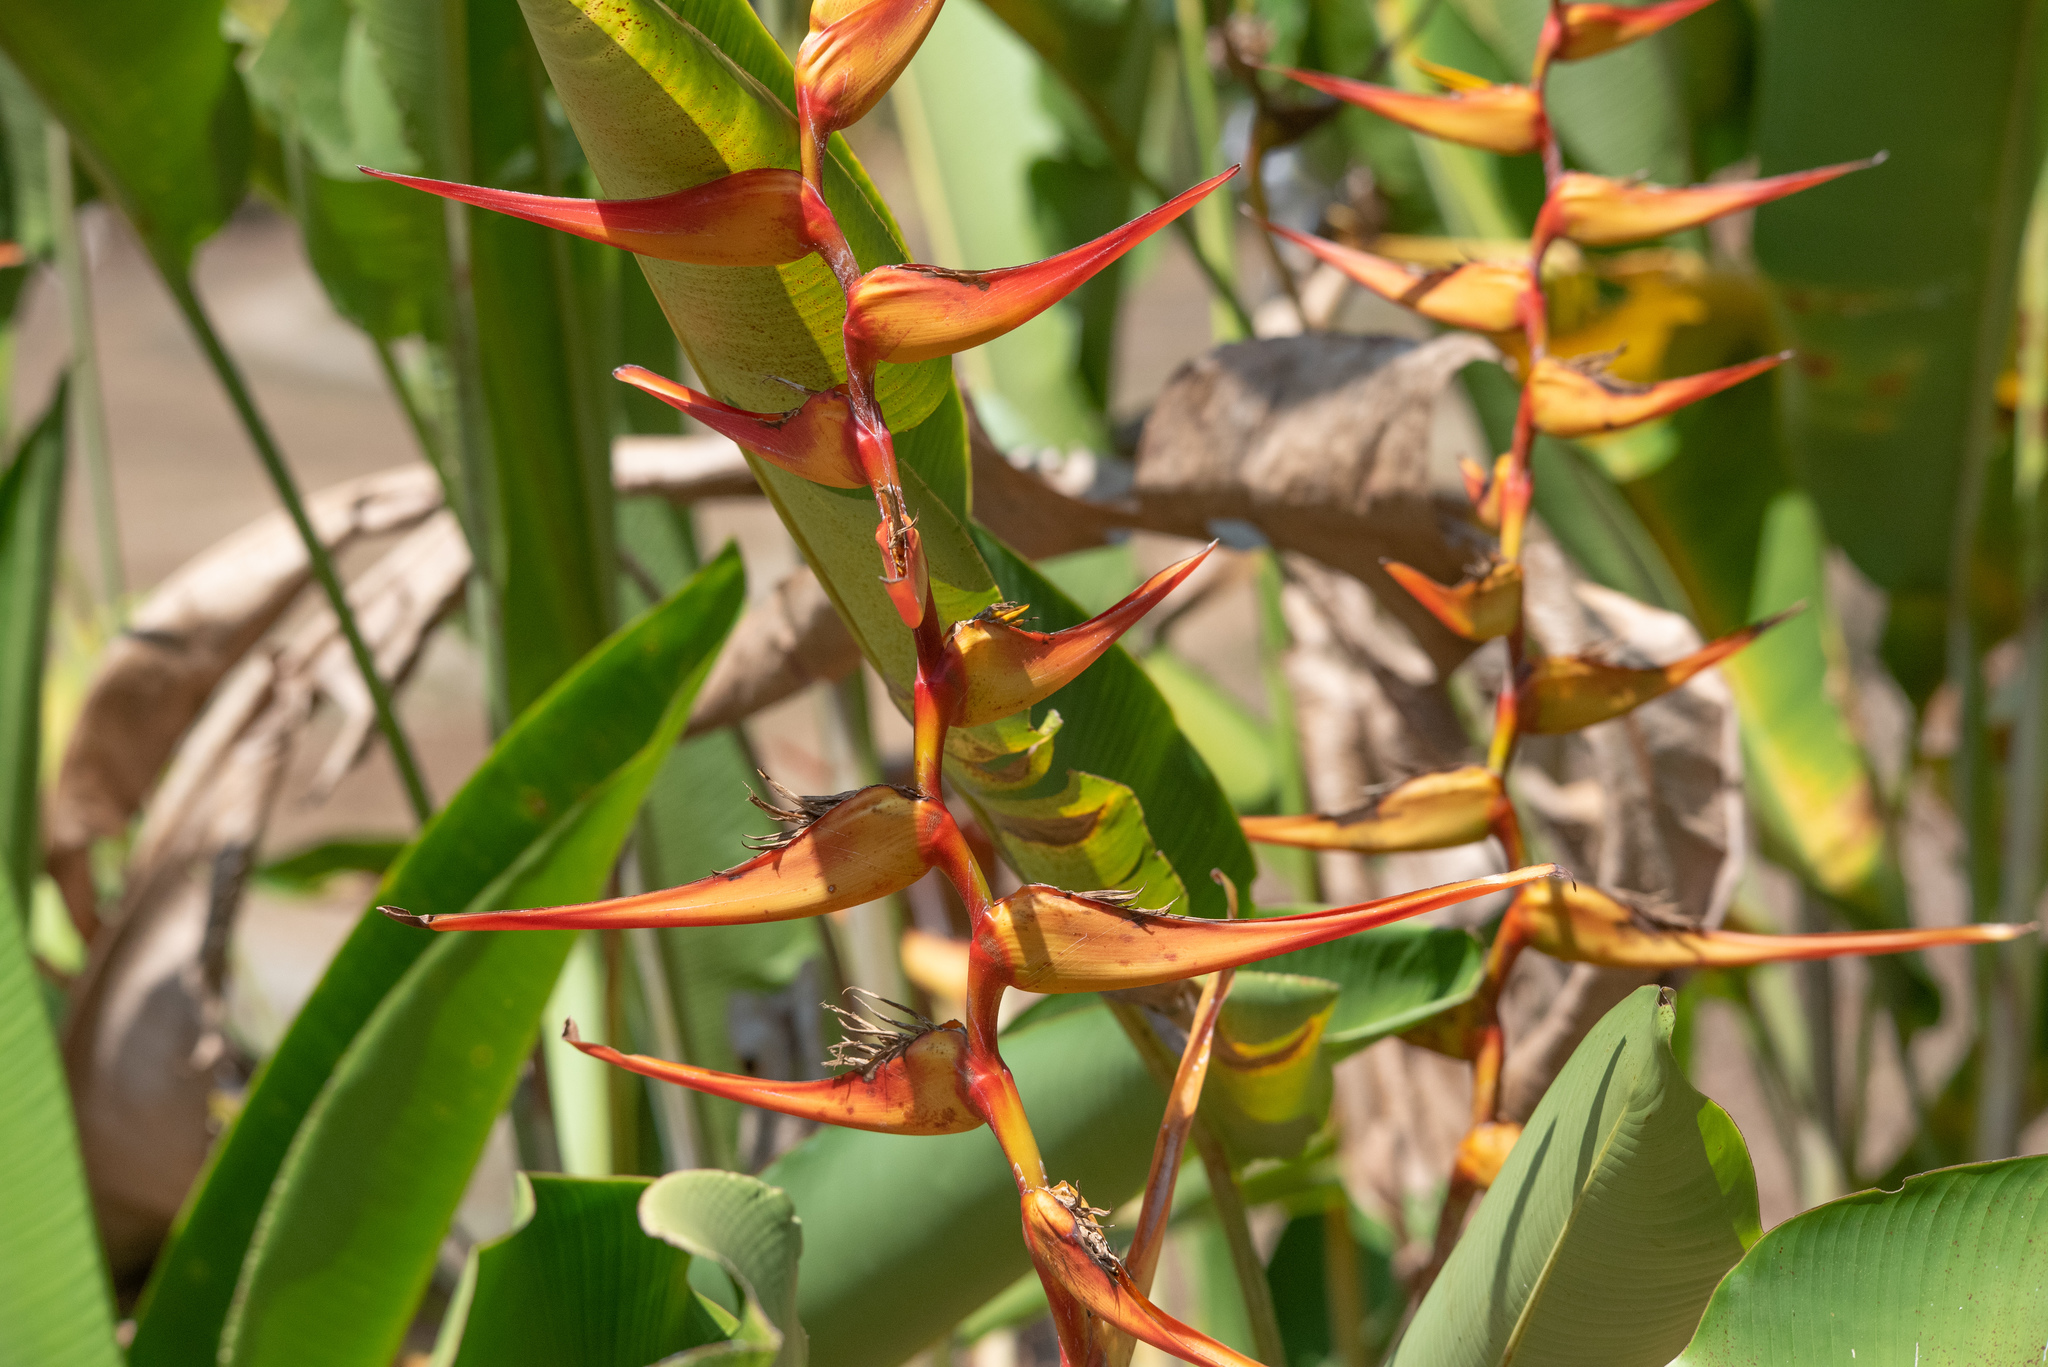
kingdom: Plantae
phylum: Tracheophyta
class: Liliopsida
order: Zingiberales
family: Heliconiaceae
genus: Heliconia
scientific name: Heliconia latispatha
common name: Expanded lobsterclaw
